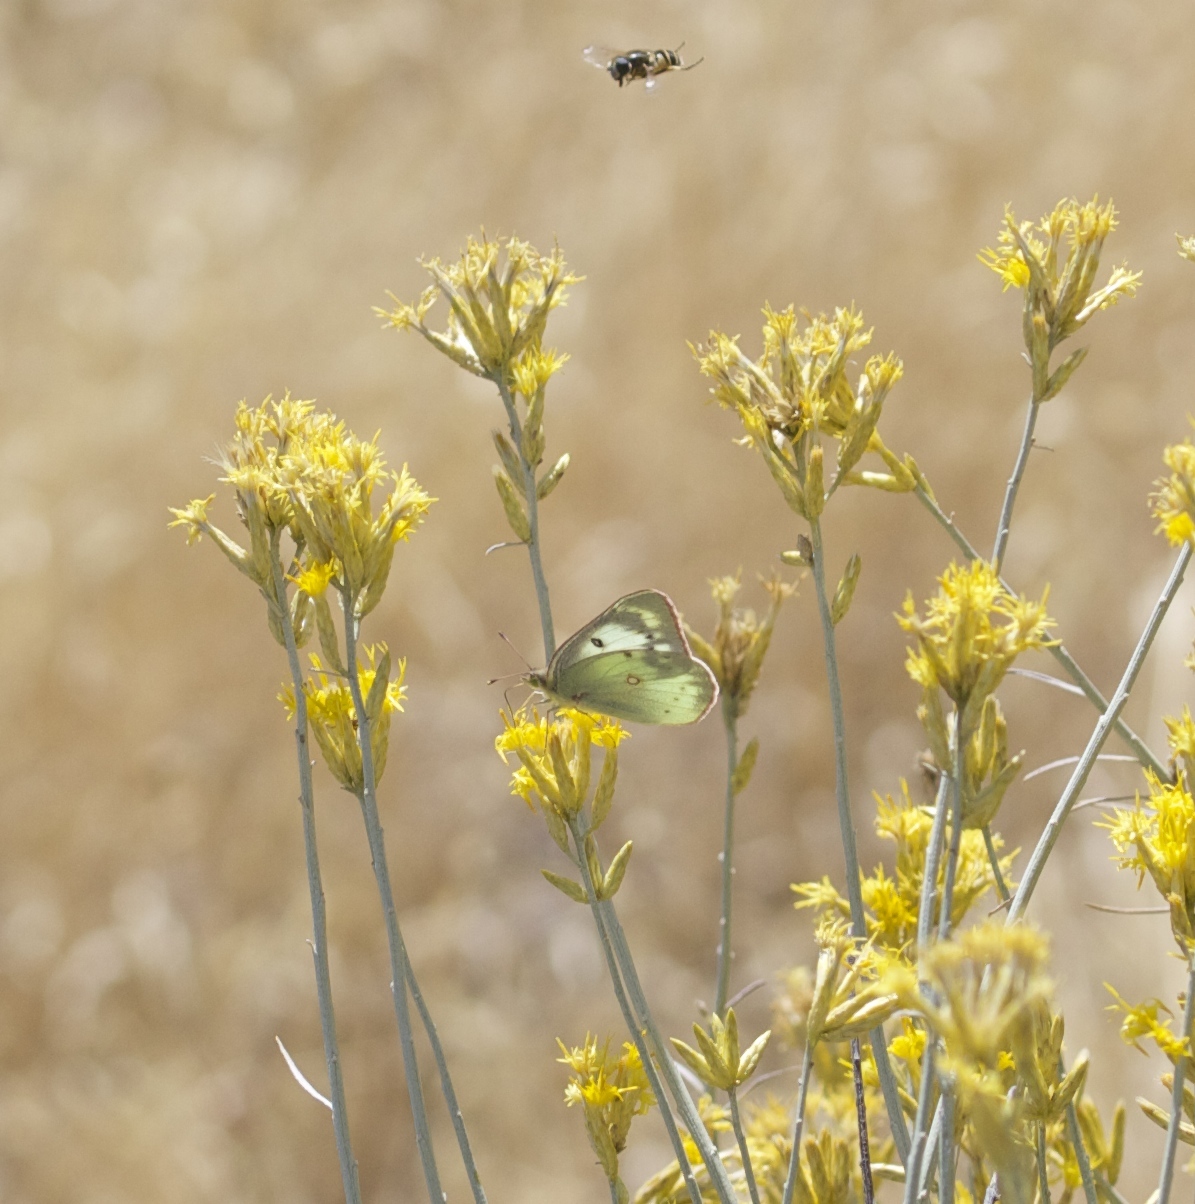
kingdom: Animalia
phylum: Arthropoda
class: Insecta
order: Lepidoptera
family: Pieridae
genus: Colias
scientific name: Colias eurytheme
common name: Alfalfa butterfly
